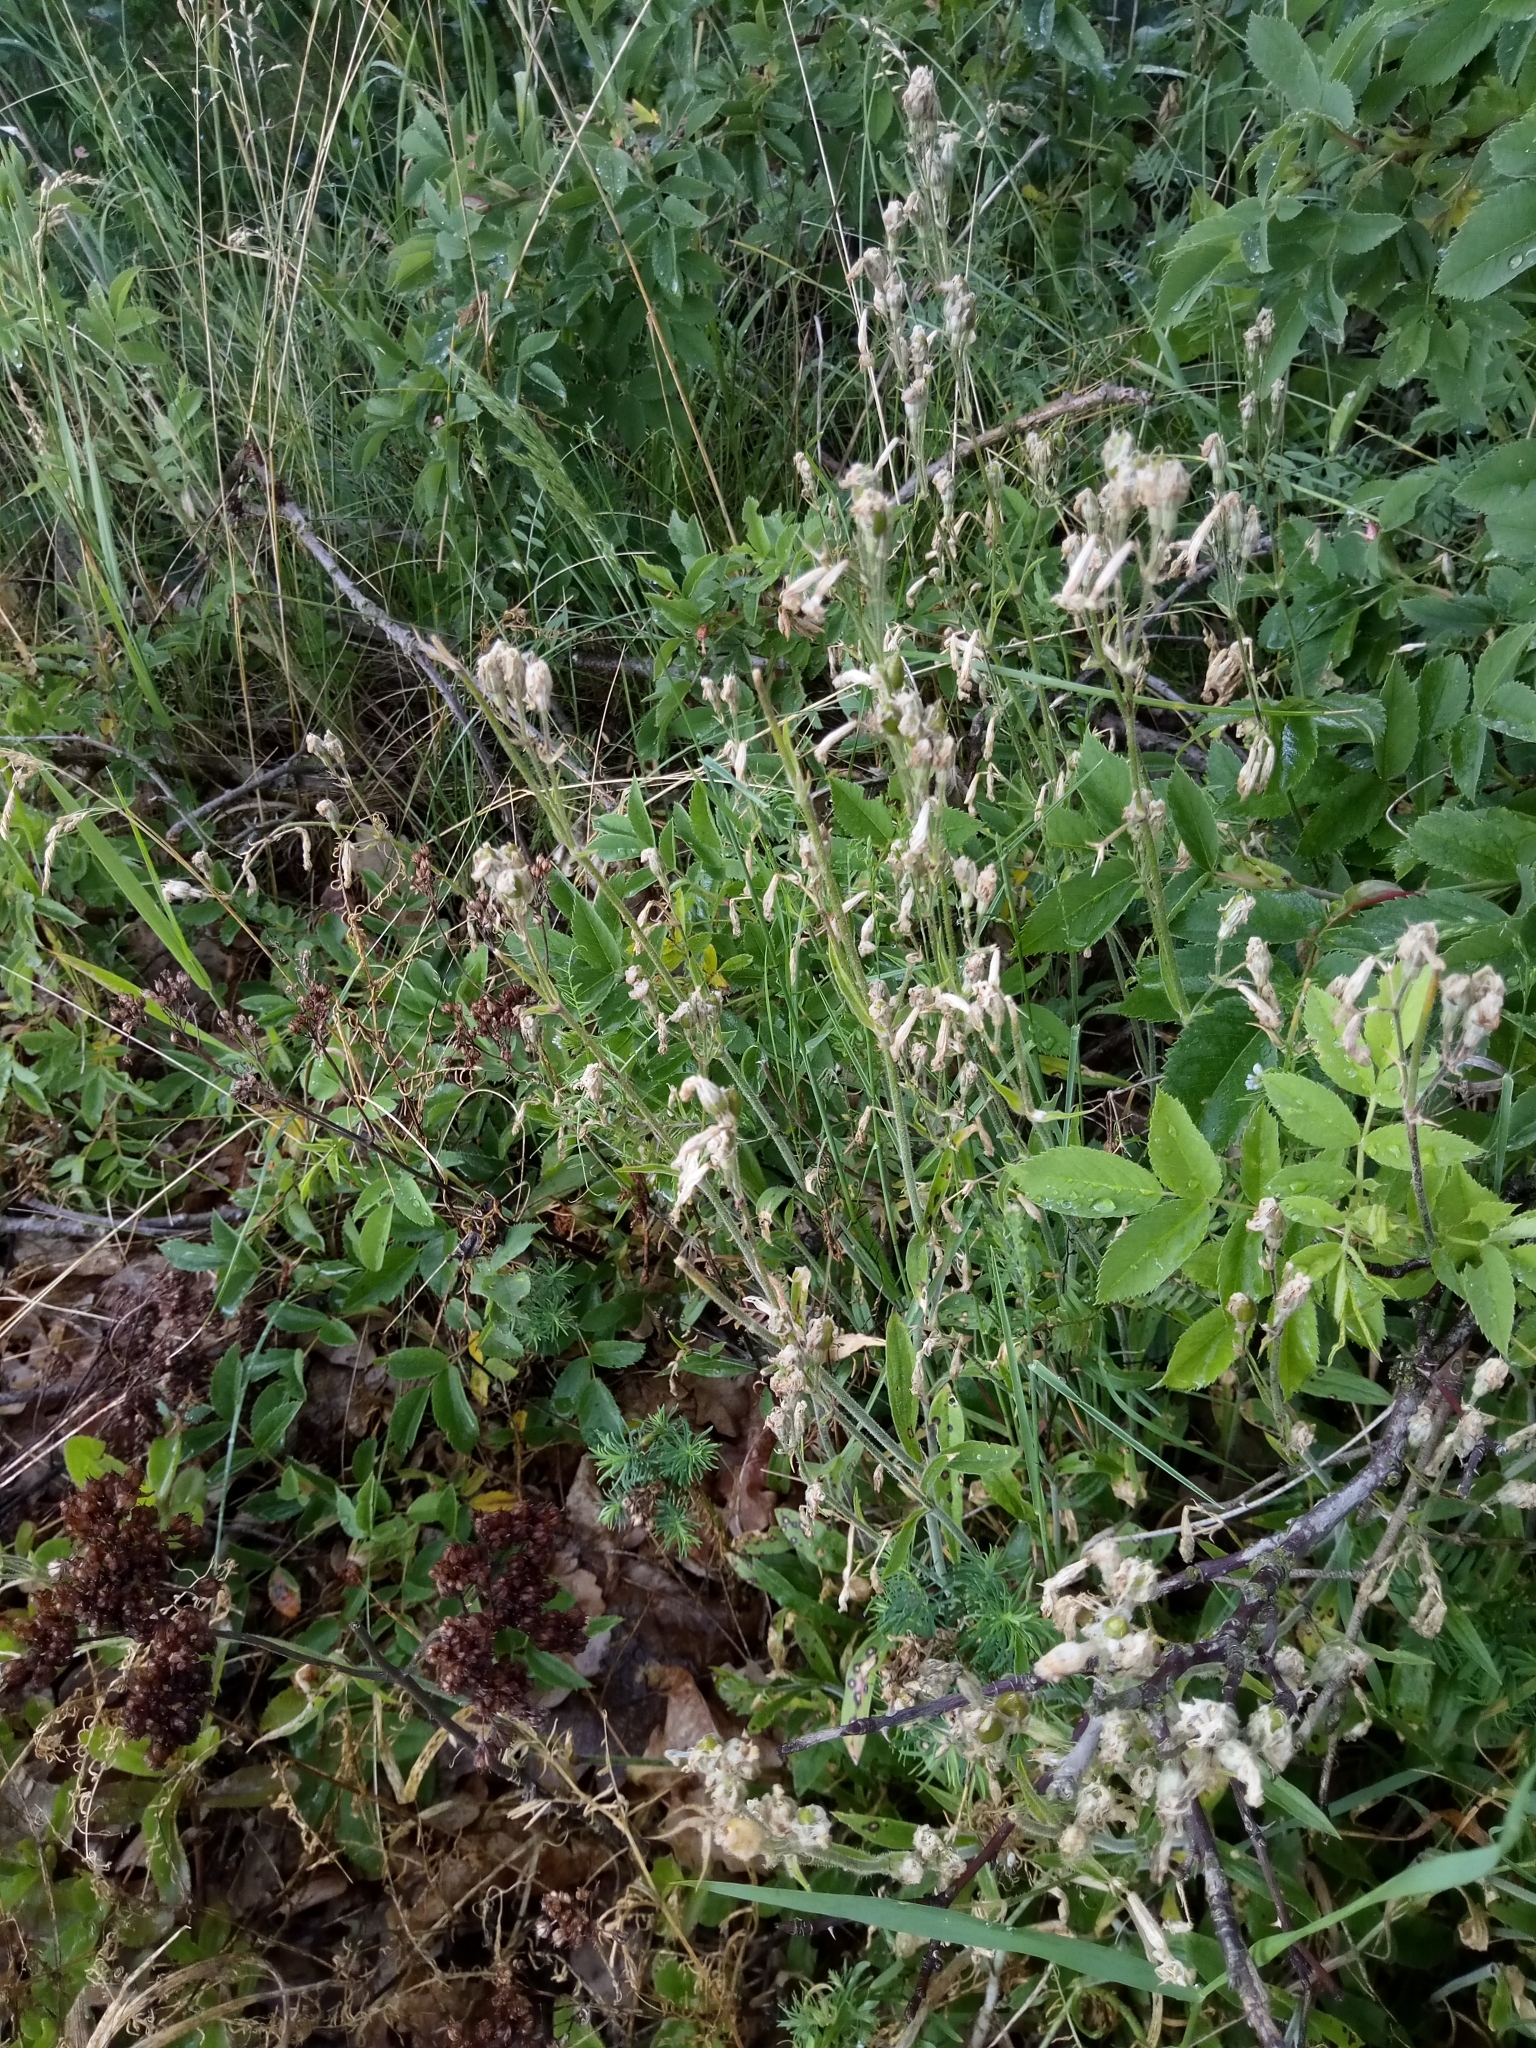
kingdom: Plantae
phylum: Tracheophyta
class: Magnoliopsida
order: Caryophyllales
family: Caryophyllaceae
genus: Silene
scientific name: Silene nutans
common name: Nottingham catchfly
